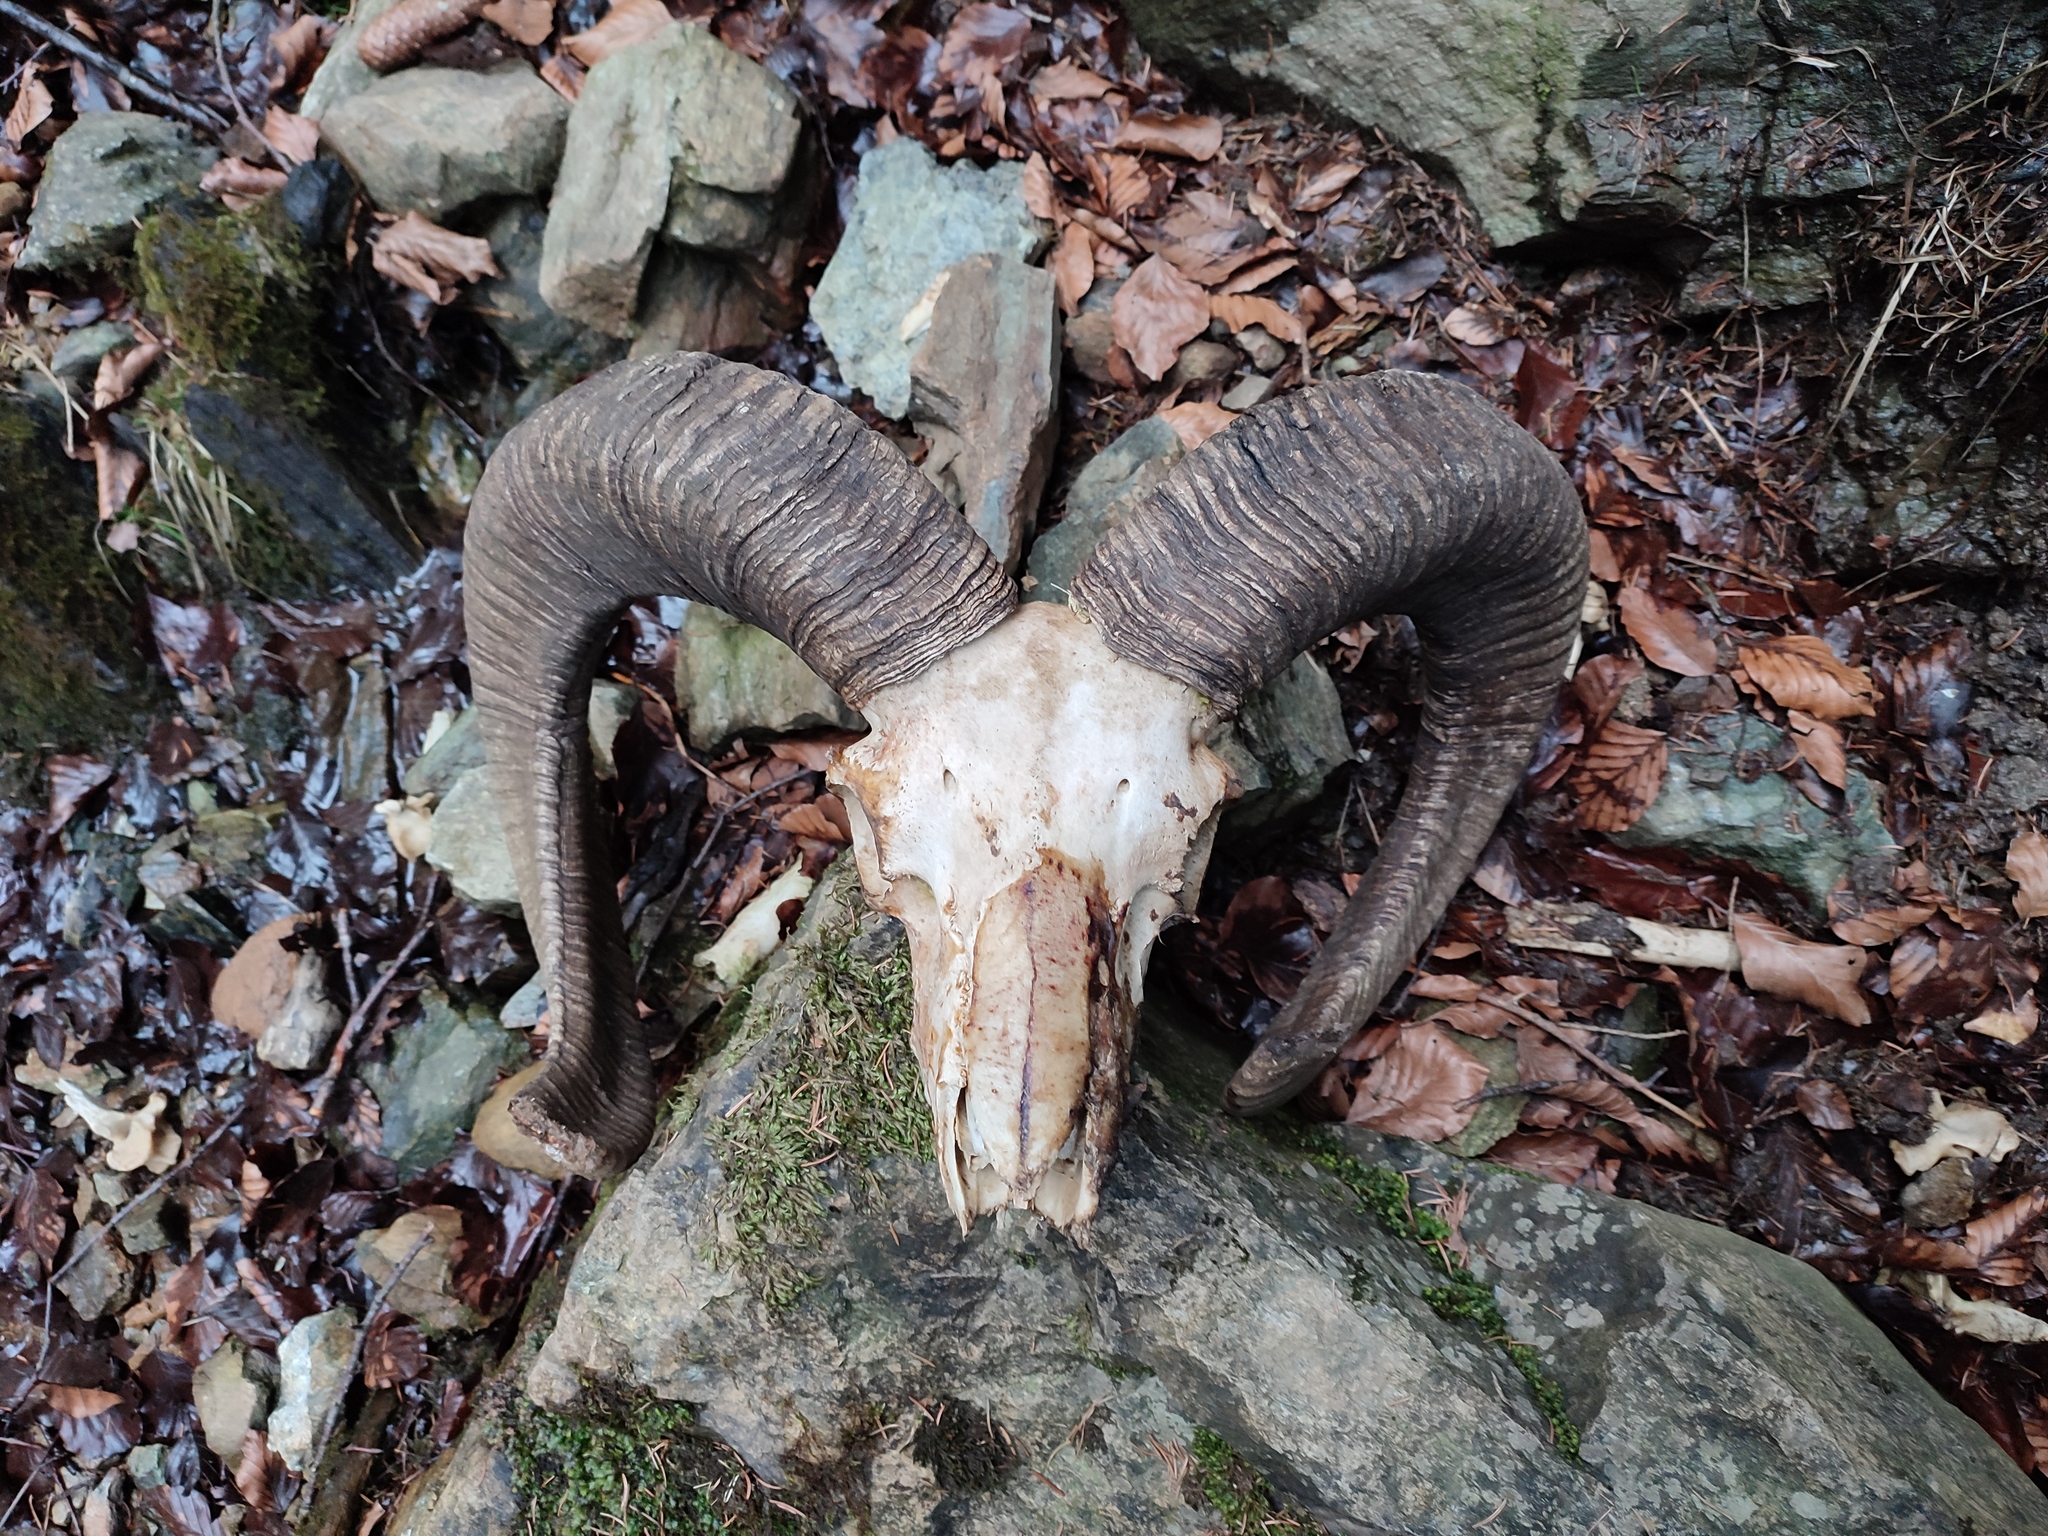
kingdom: Animalia
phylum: Chordata
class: Mammalia
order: Artiodactyla
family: Bovidae
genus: Ovis
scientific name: Ovis aries
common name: Domestic sheep
